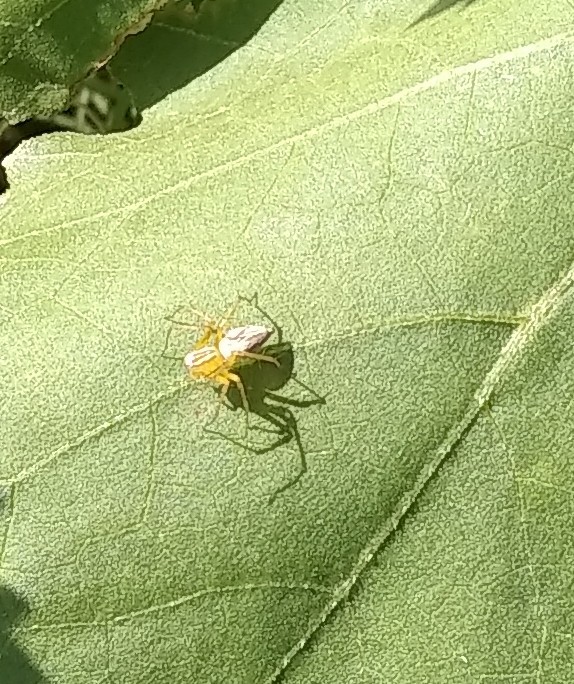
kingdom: Animalia
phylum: Arthropoda
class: Arachnida
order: Araneae
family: Oxyopidae
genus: Oxyopes
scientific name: Oxyopes salticus
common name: Lynx spiders
